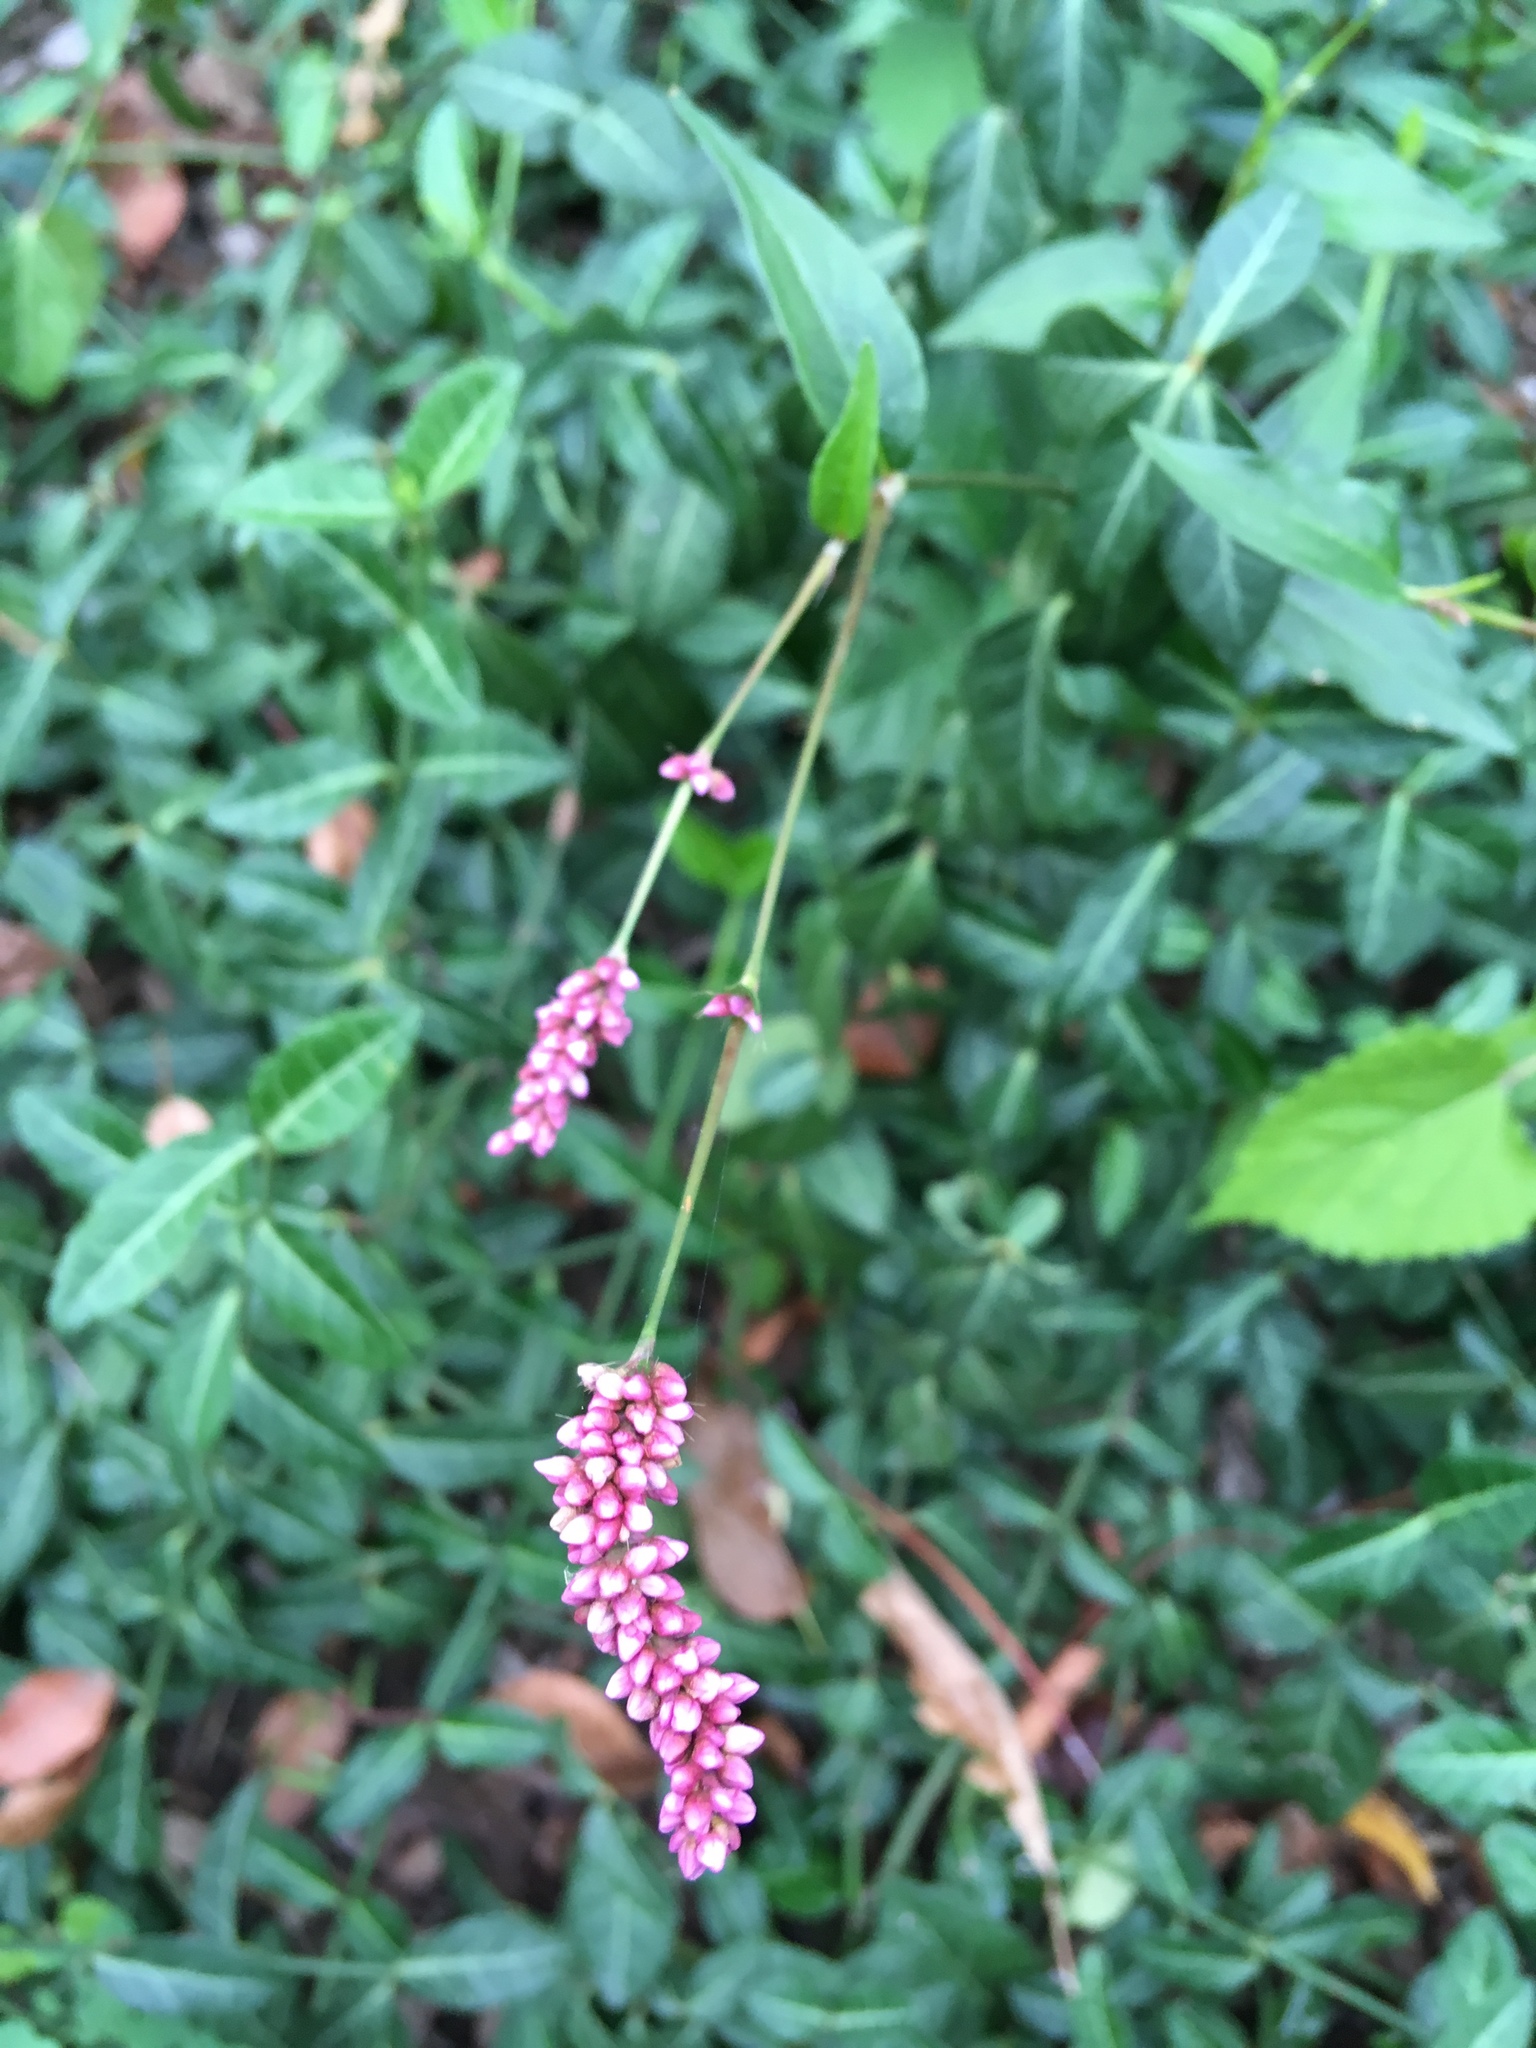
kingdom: Plantae
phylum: Tracheophyta
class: Magnoliopsida
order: Caryophyllales
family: Polygonaceae
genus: Persicaria
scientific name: Persicaria longiseta
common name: Bristly lady's-thumb
